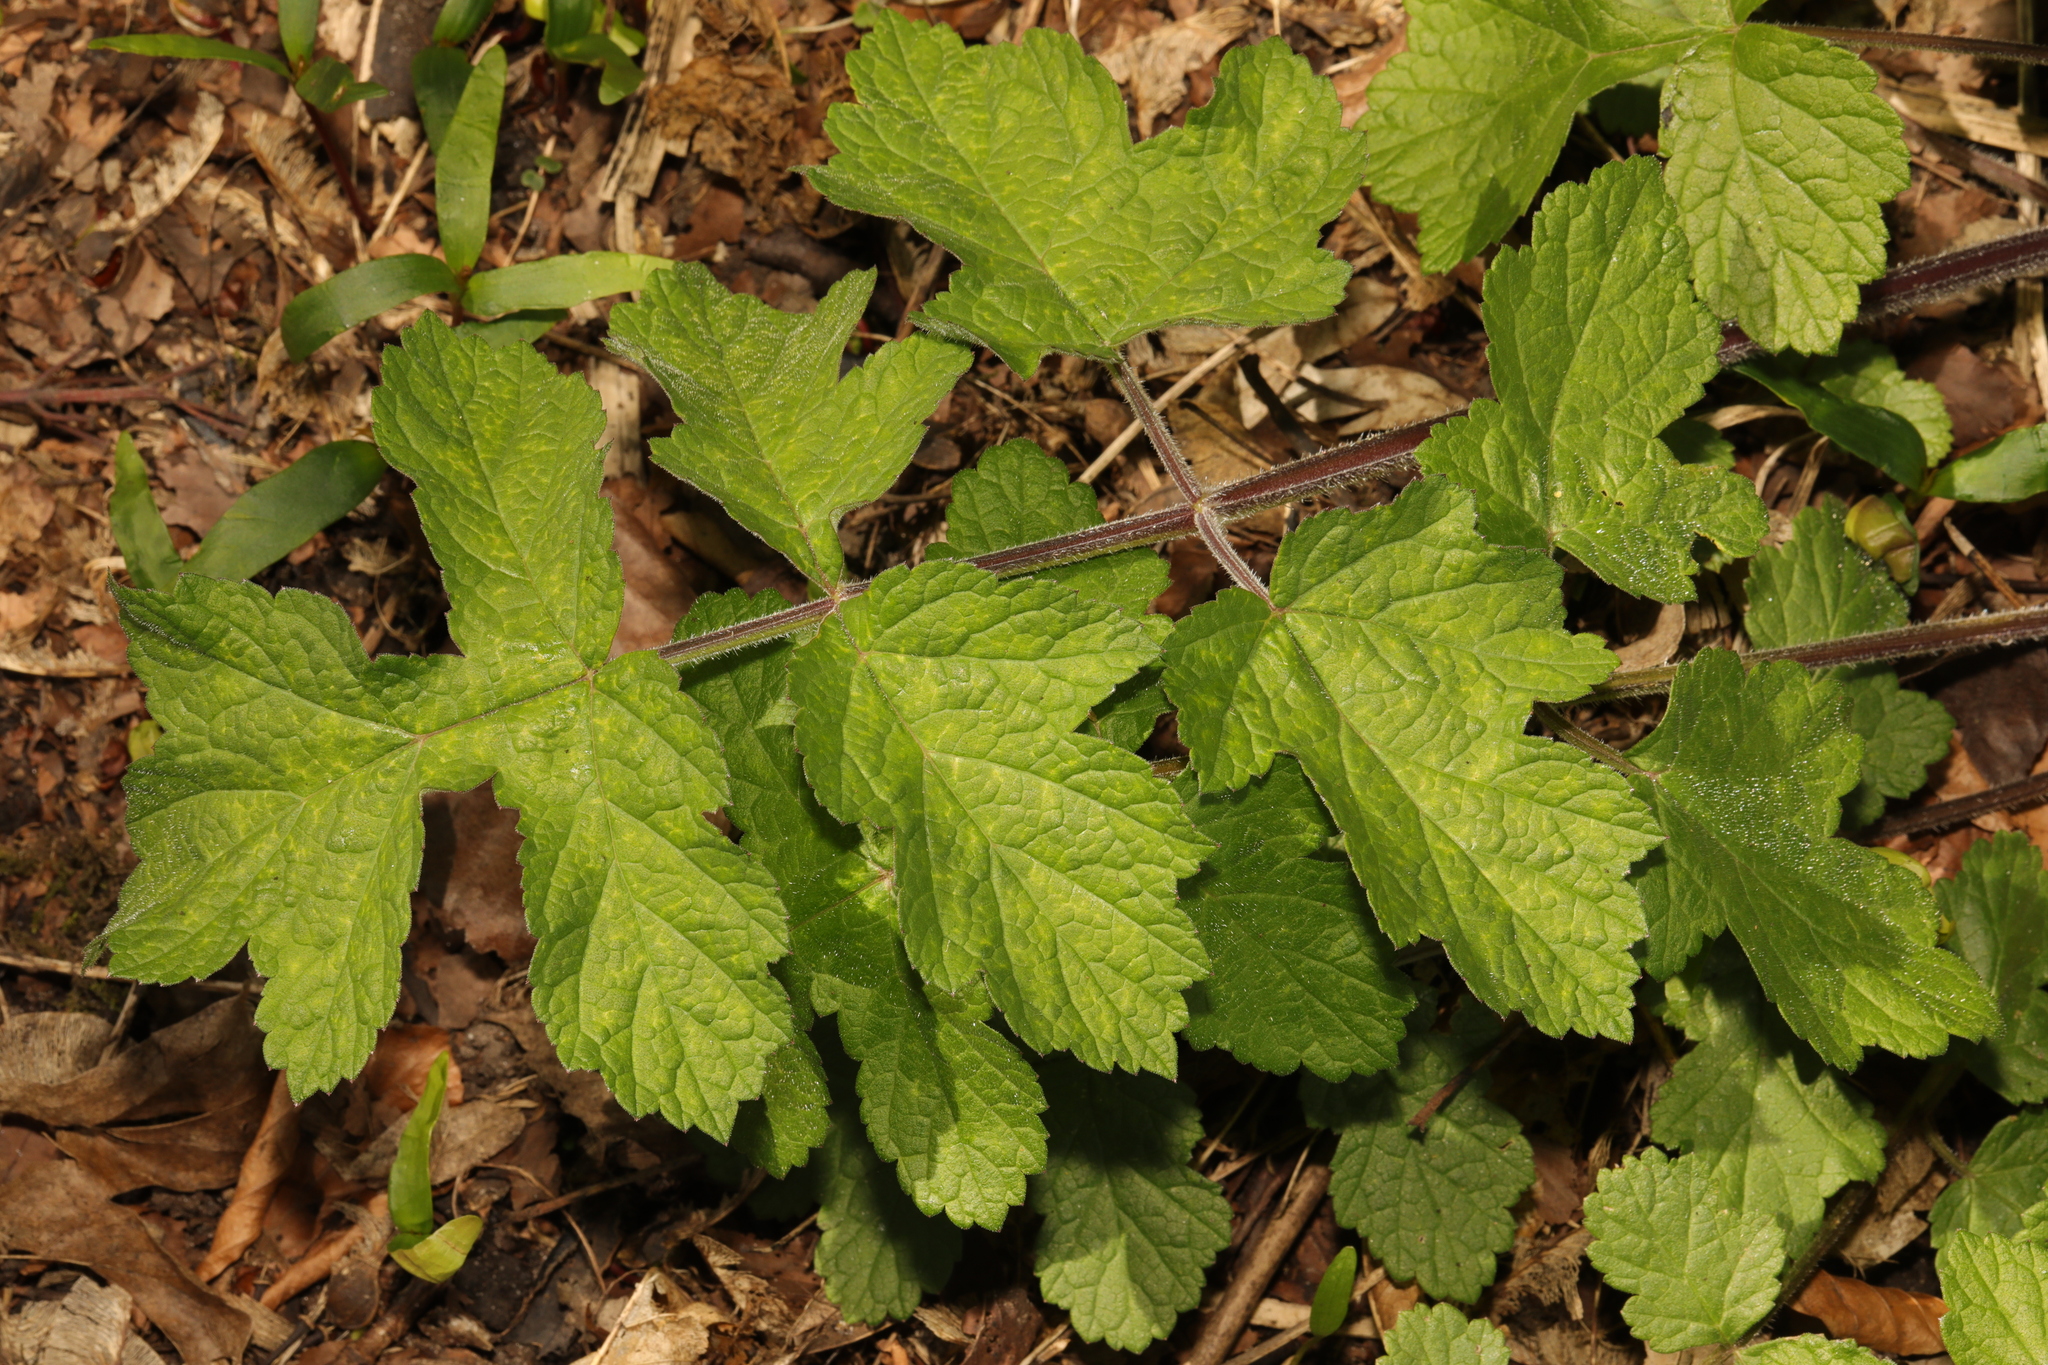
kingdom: Plantae
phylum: Tracheophyta
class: Magnoliopsida
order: Apiales
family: Apiaceae
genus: Heracleum
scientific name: Heracleum sphondylium
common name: Hogweed
